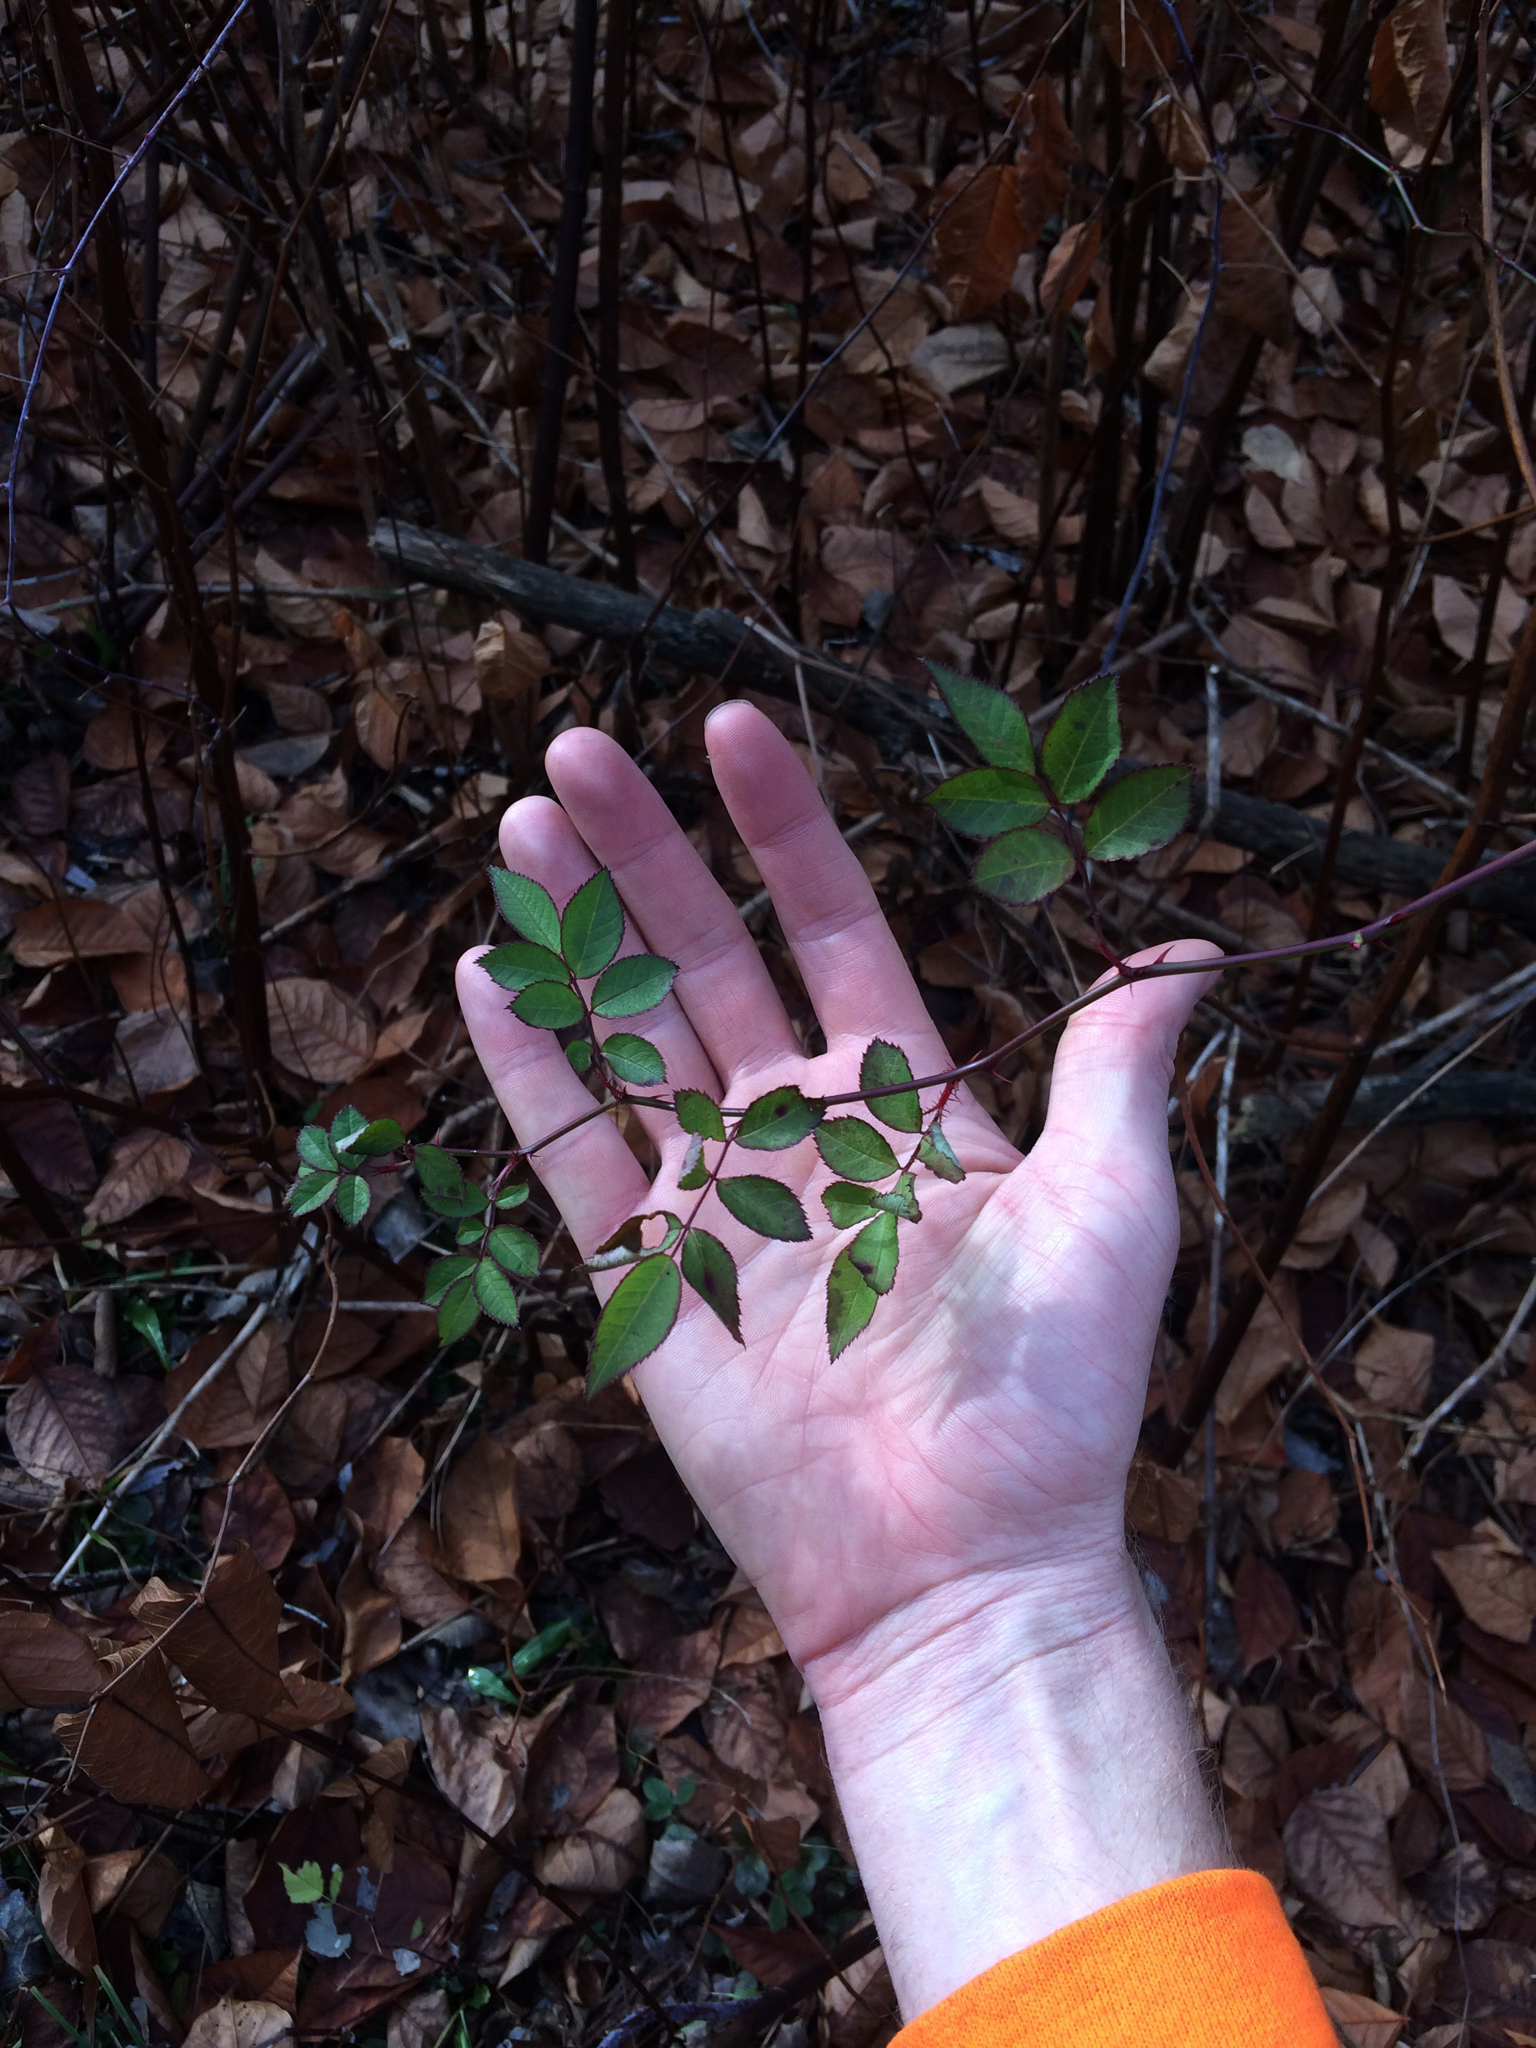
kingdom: Plantae
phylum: Tracheophyta
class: Magnoliopsida
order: Rosales
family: Rosaceae
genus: Rosa
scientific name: Rosa multiflora
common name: Multiflora rose
